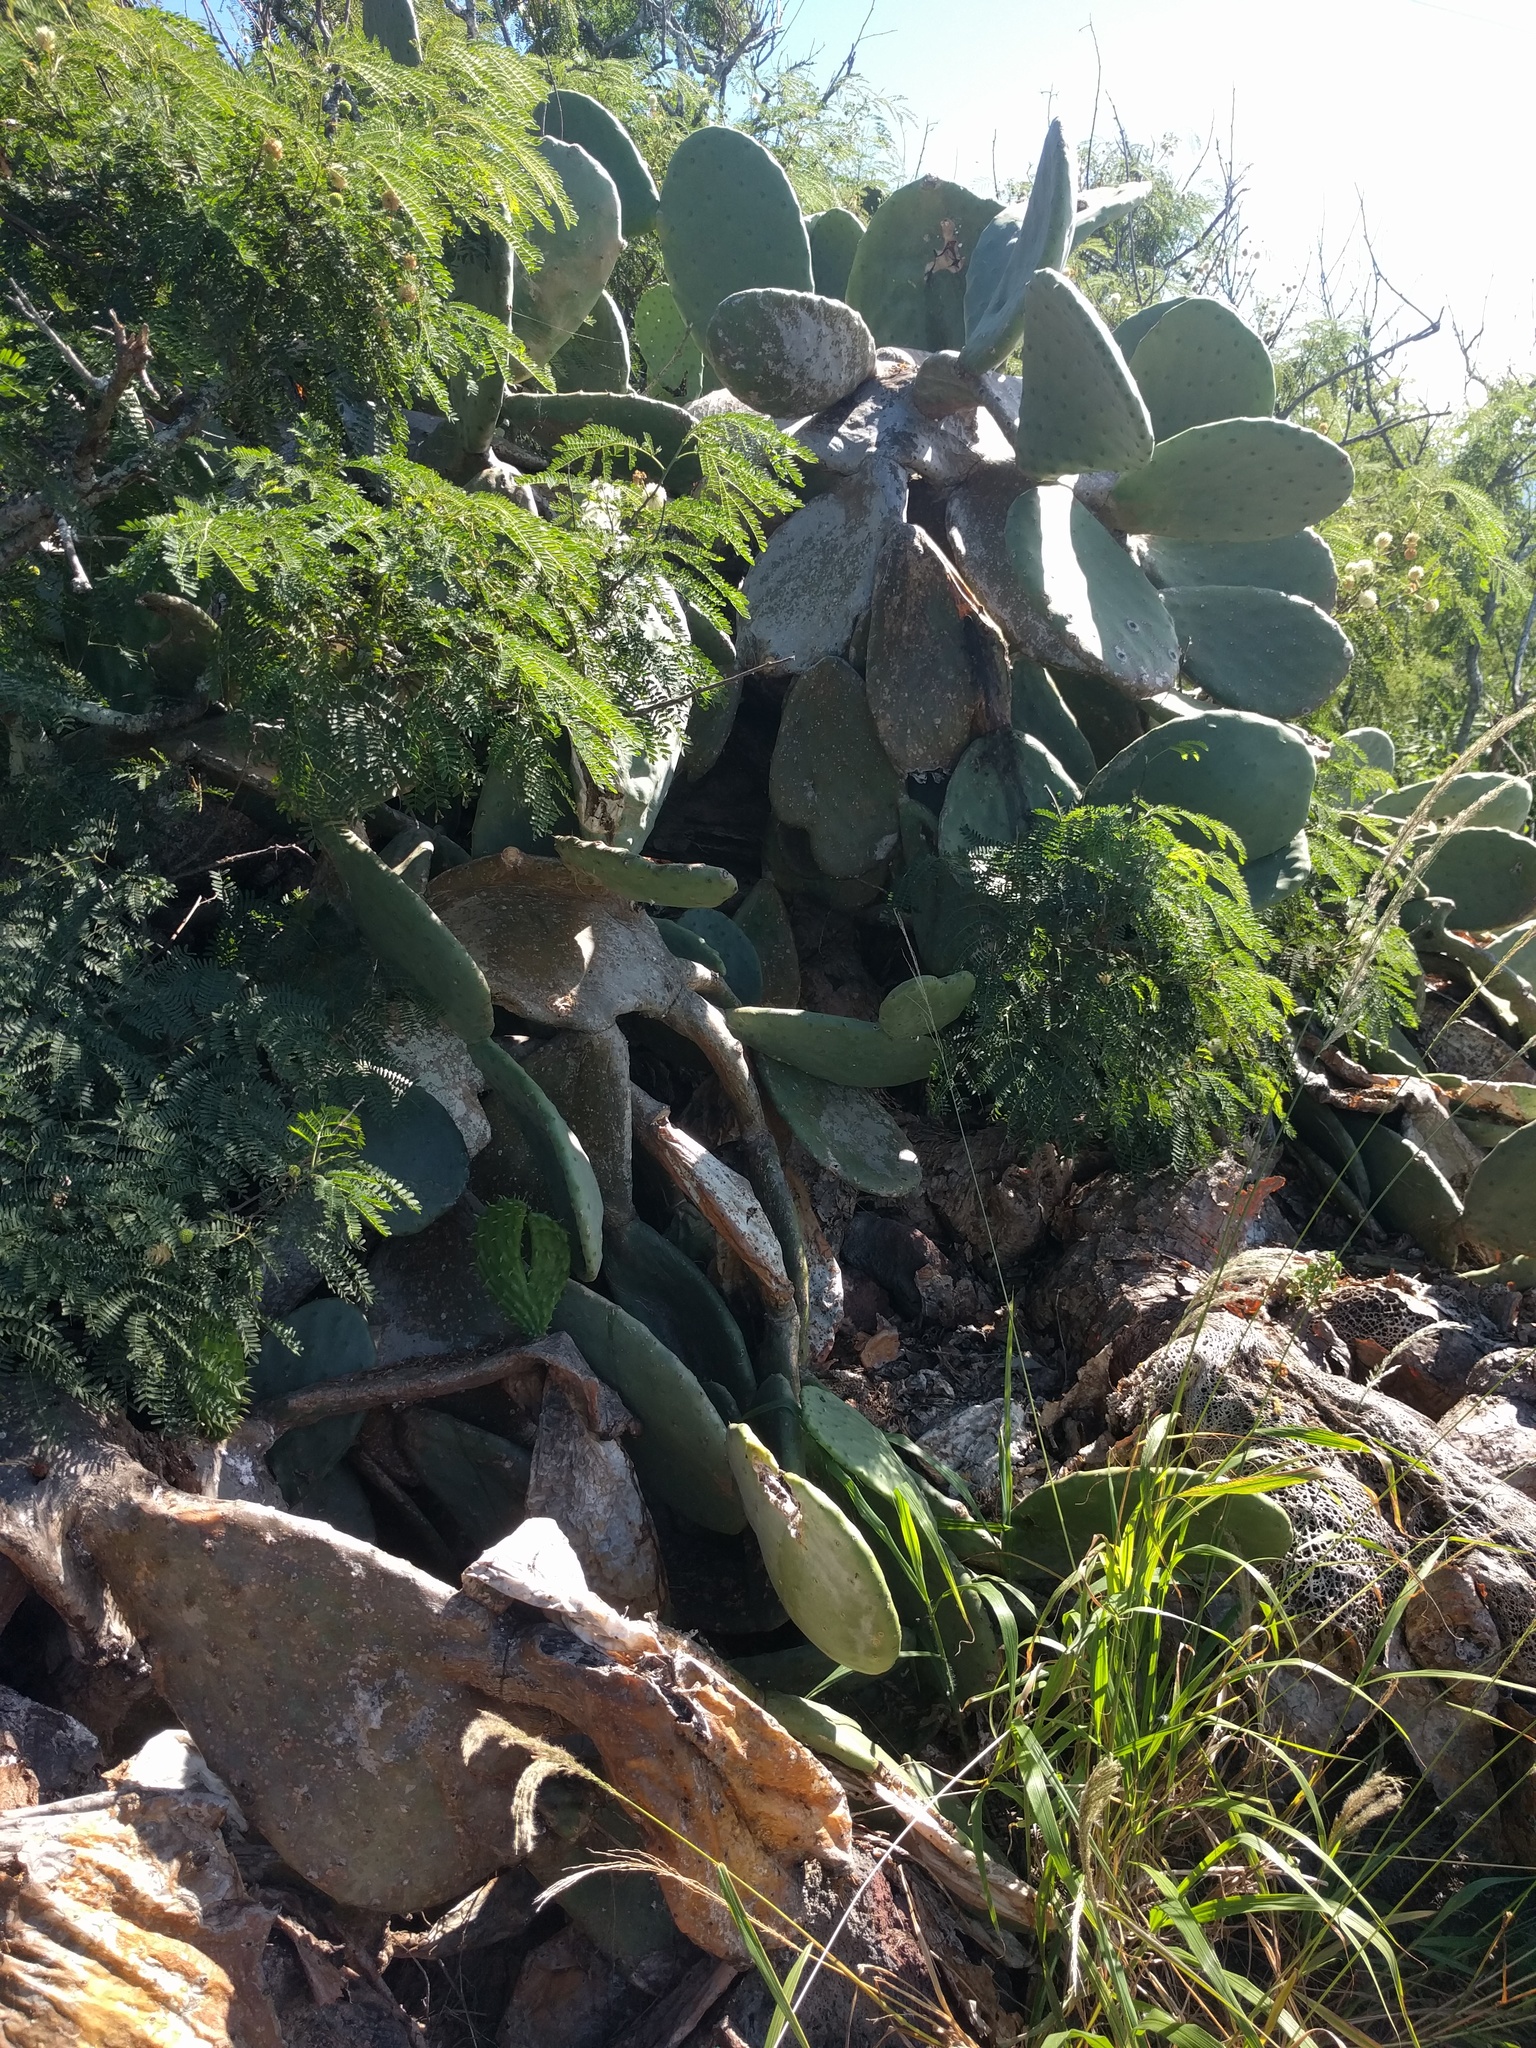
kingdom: Plantae
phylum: Tracheophyta
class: Magnoliopsida
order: Fabales
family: Fabaceae
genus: Leucaena
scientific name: Leucaena leucocephala
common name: White leadtree
